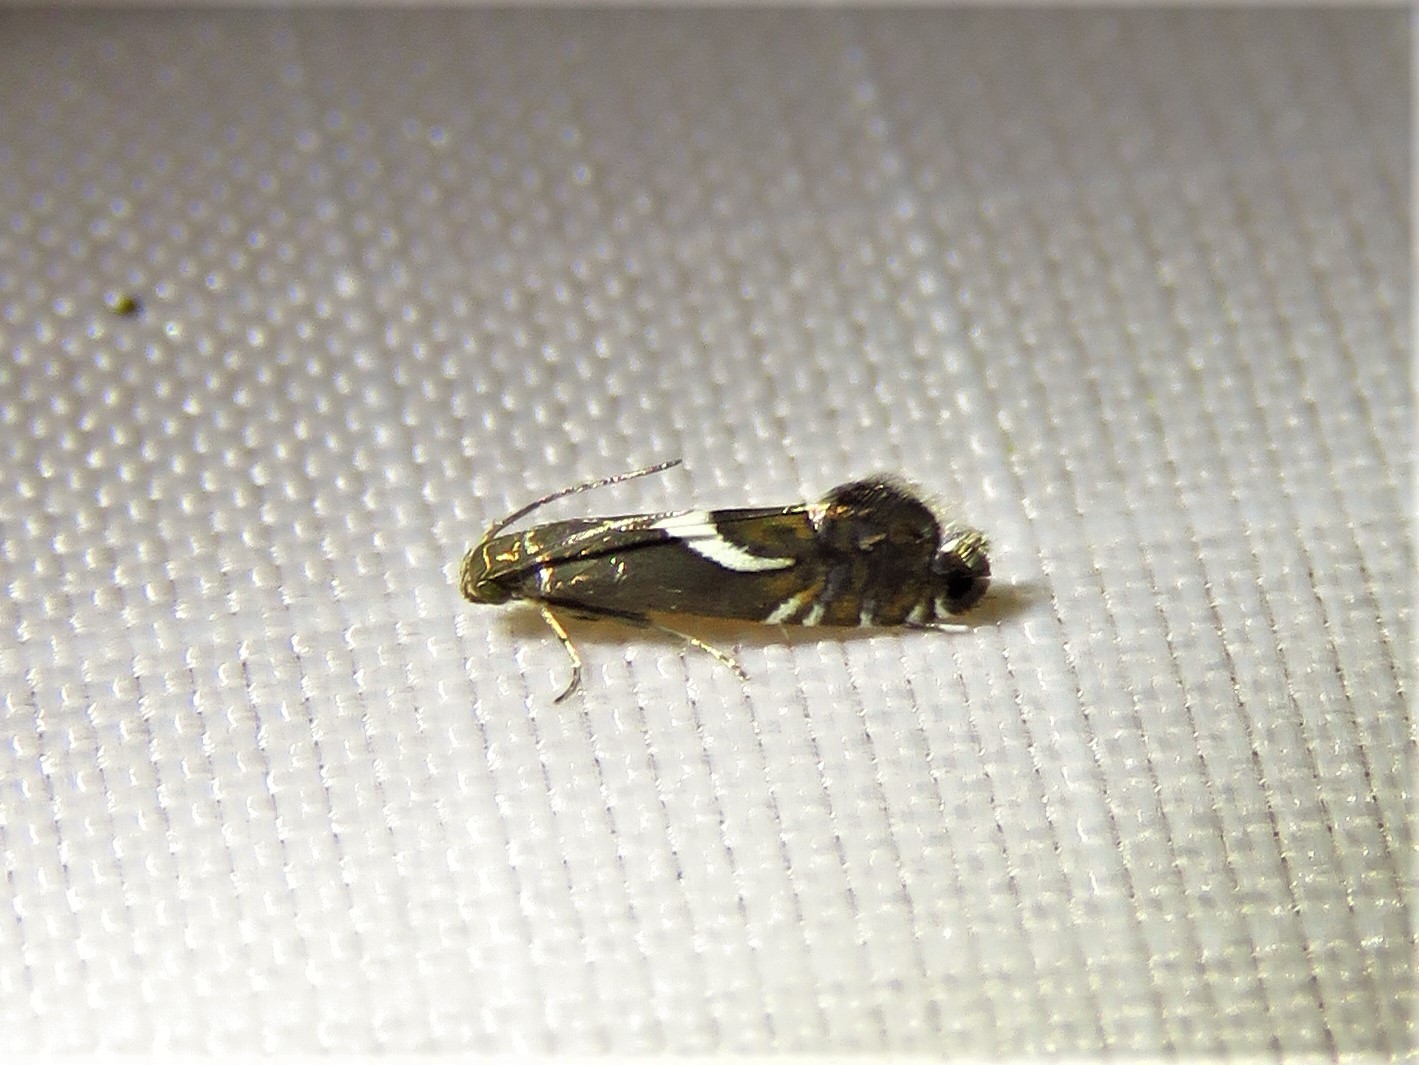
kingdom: Animalia
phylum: Arthropoda
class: Insecta
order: Lepidoptera
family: Glyphipterigidae
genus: Glyphipterix
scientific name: Glyphipterix Diploschizia impigritella
